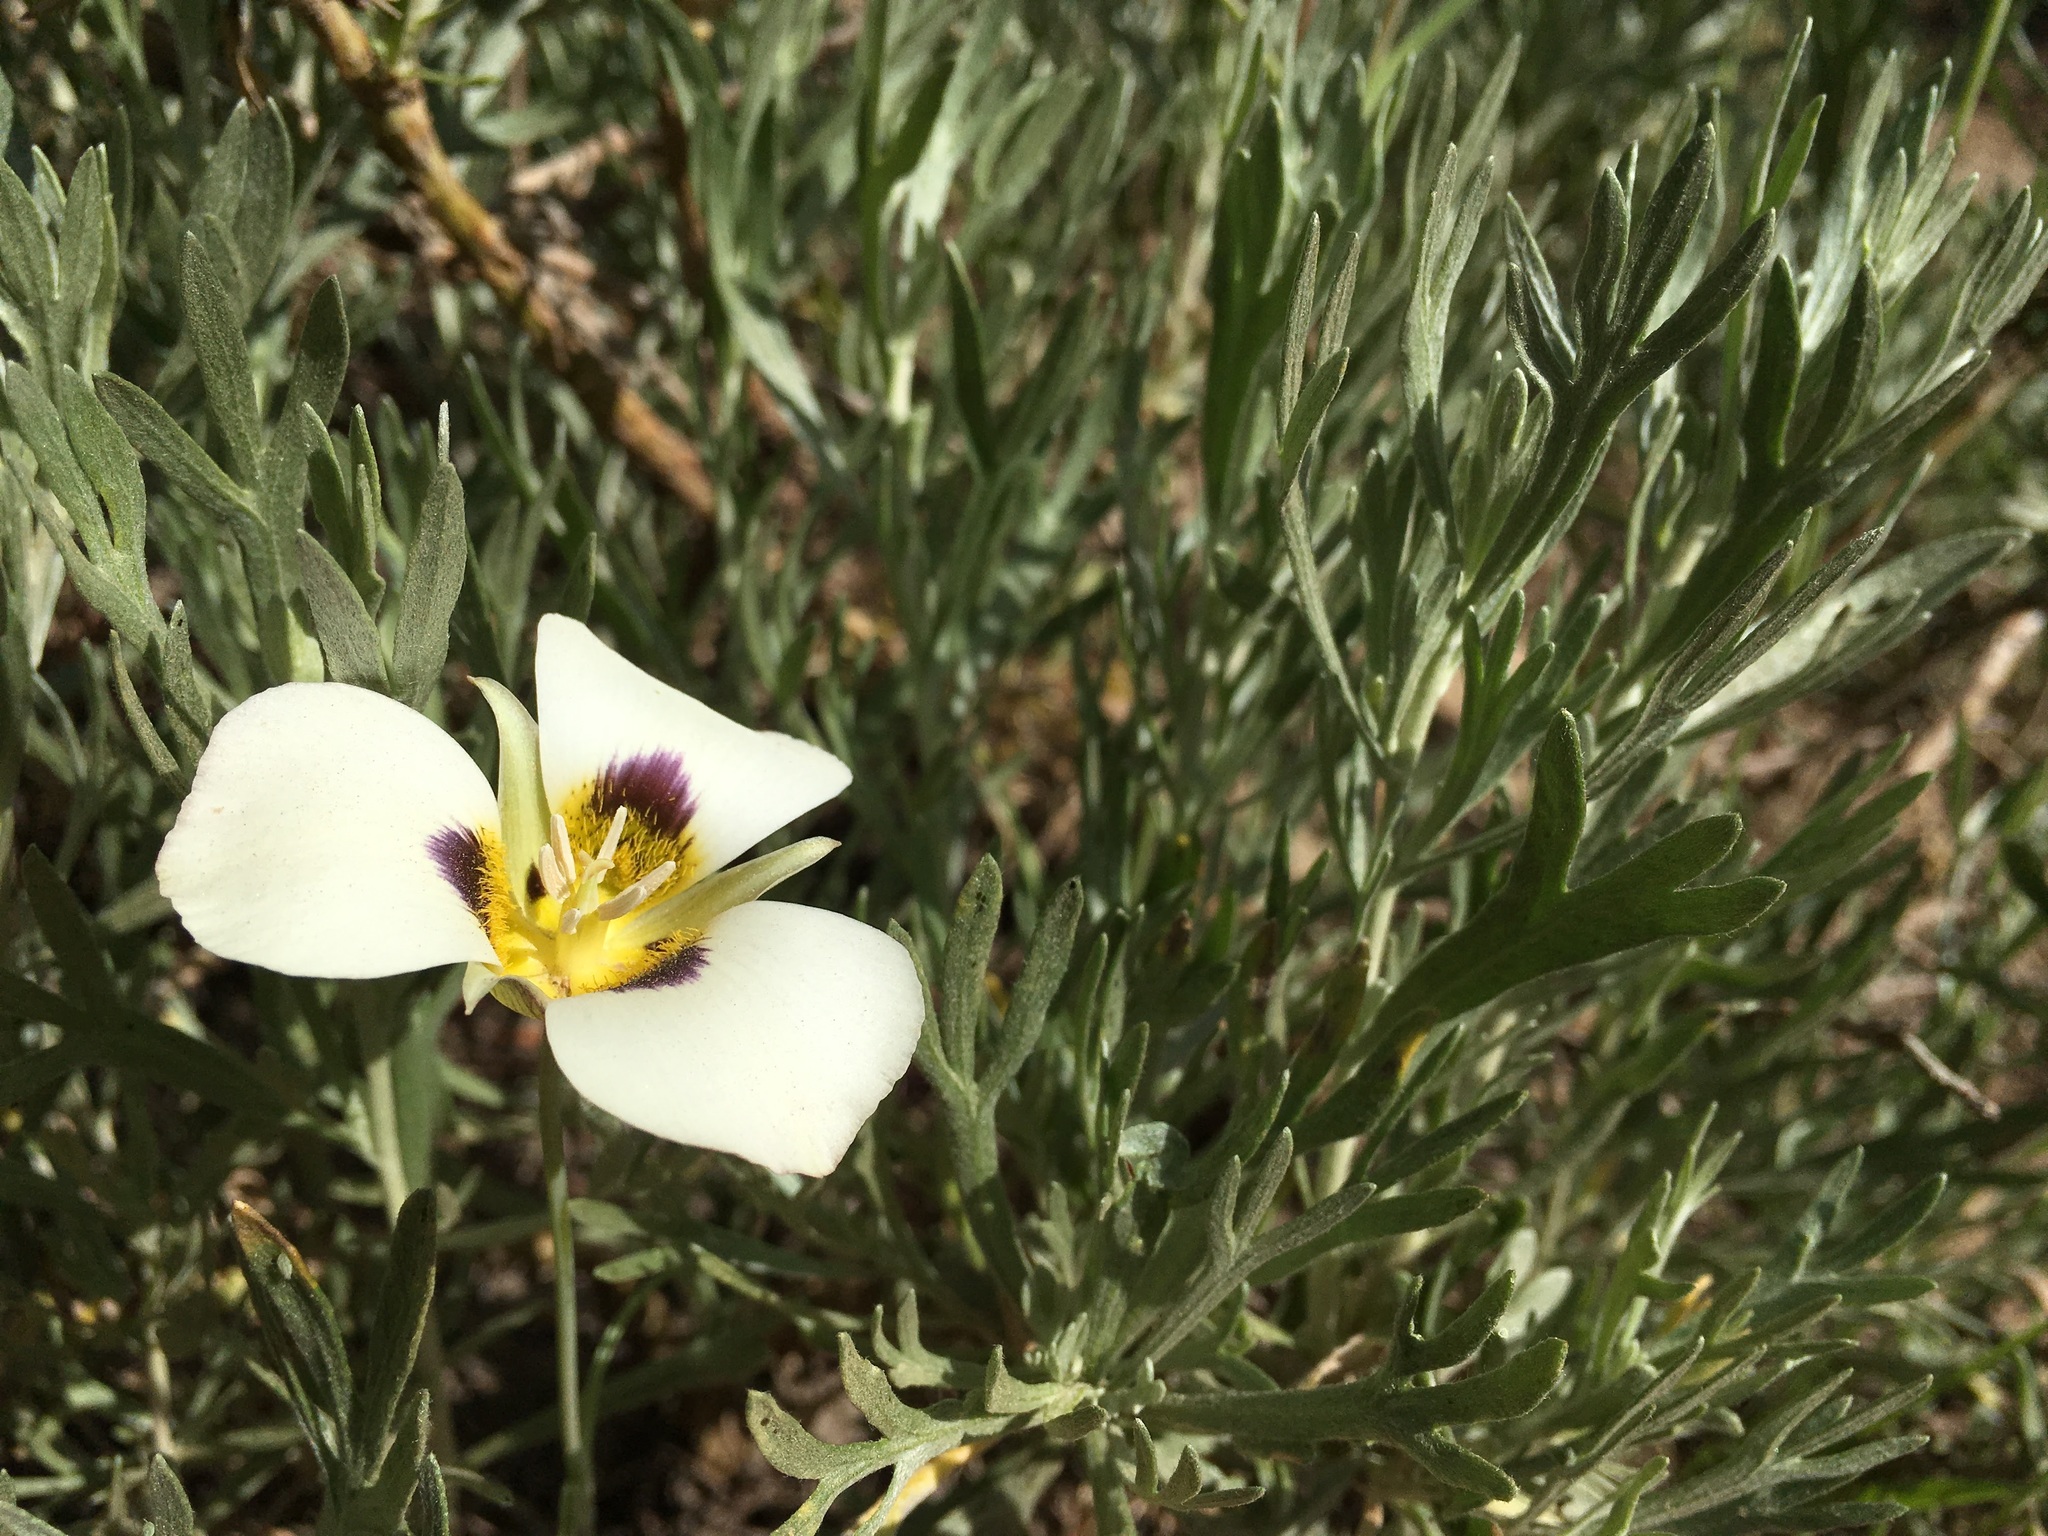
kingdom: Plantae
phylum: Tracheophyta
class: Liliopsida
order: Liliales
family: Liliaceae
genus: Calochortus
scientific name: Calochortus leichtlinii
